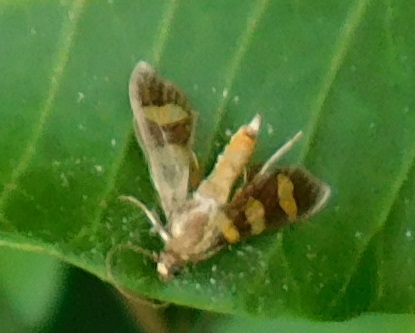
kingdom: Animalia
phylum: Arthropoda
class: Insecta
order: Lepidoptera
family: Crambidae
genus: Syngamia
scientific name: Syngamia florella
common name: Orange-spotted flower moth
